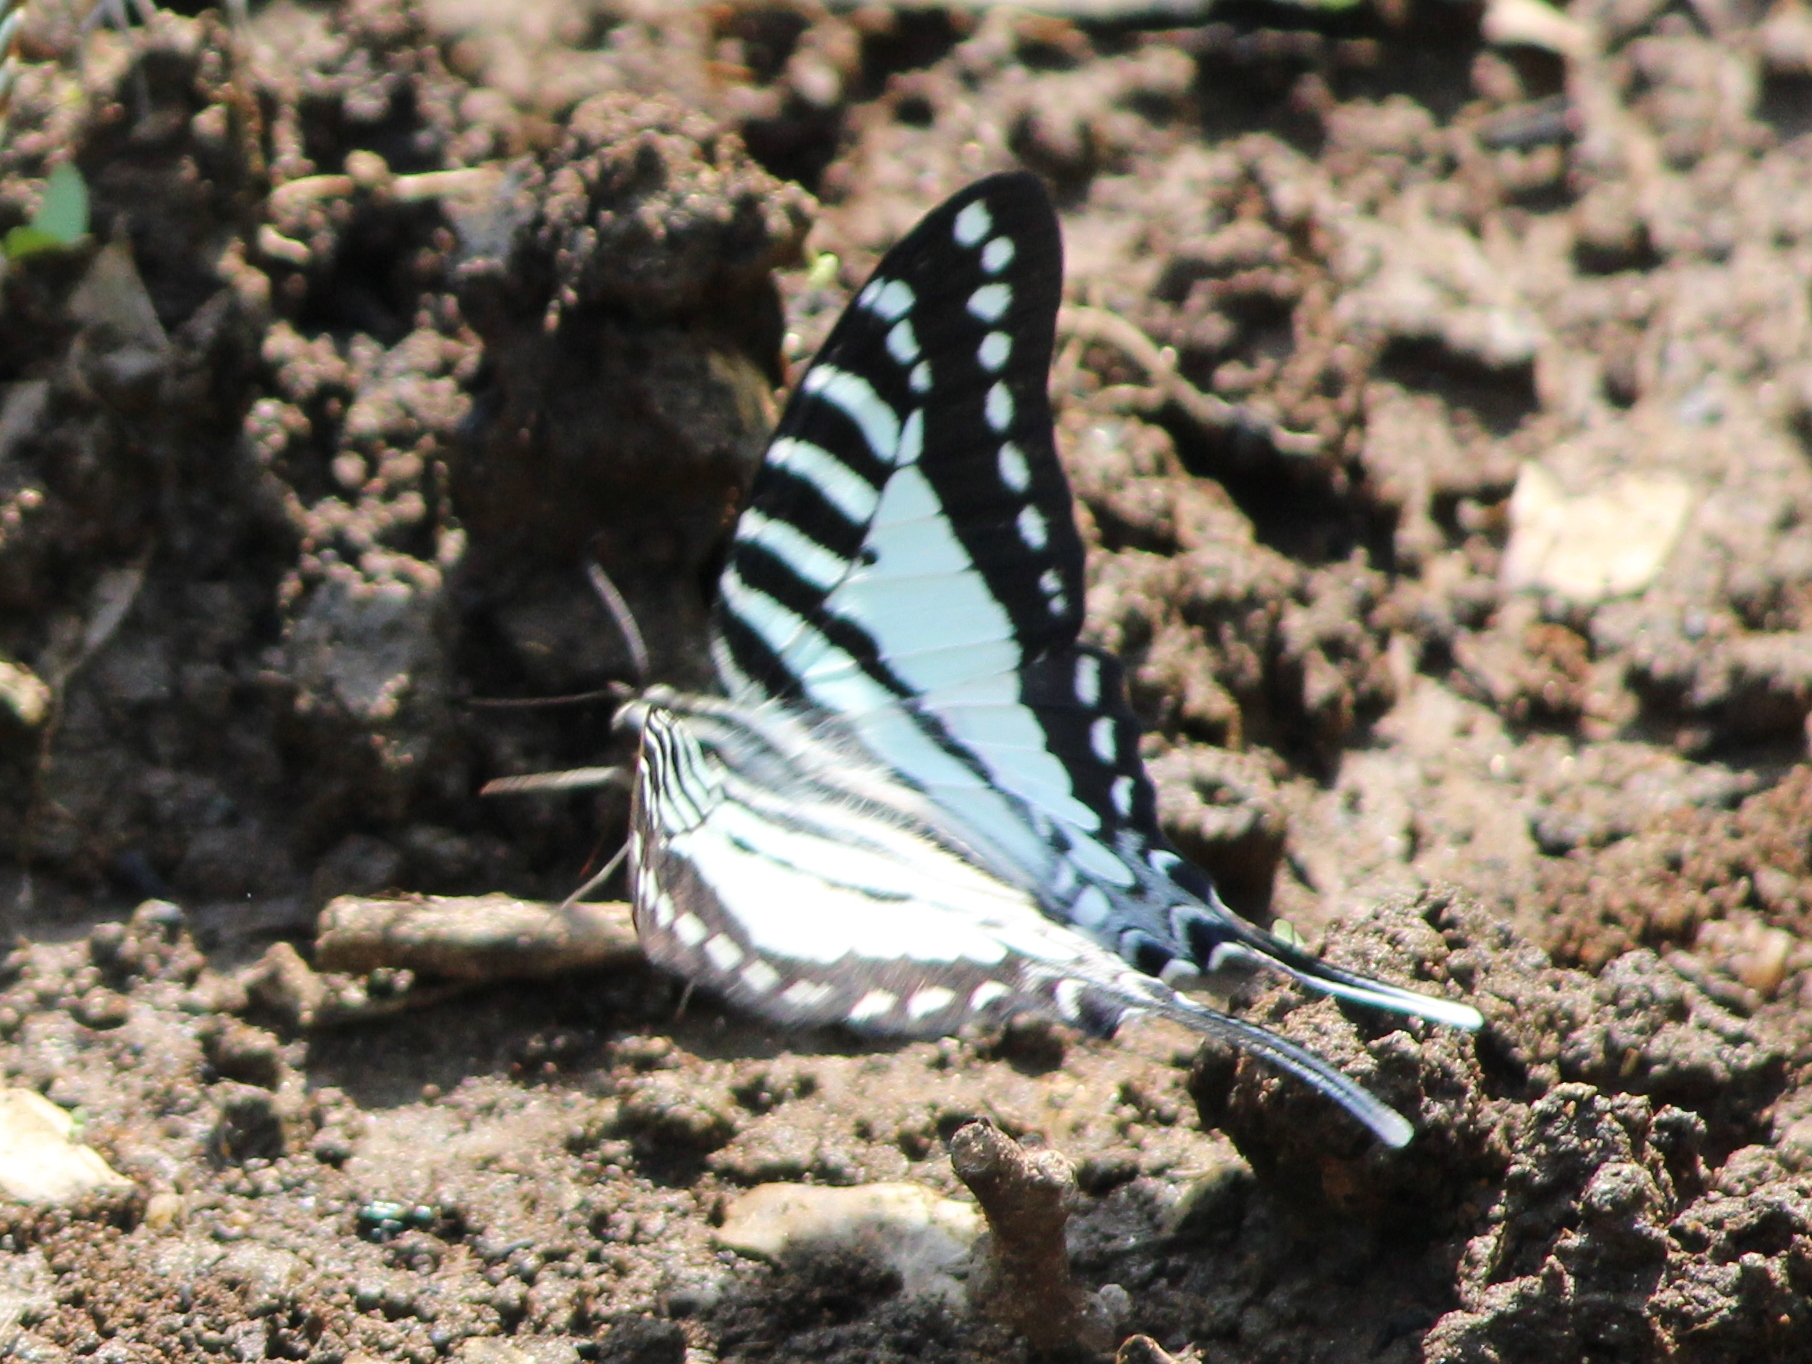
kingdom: Animalia
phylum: Arthropoda
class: Insecta
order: Lepidoptera
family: Papilionidae
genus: Graphium
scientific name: Graphium nomius
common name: Spot swordtail
